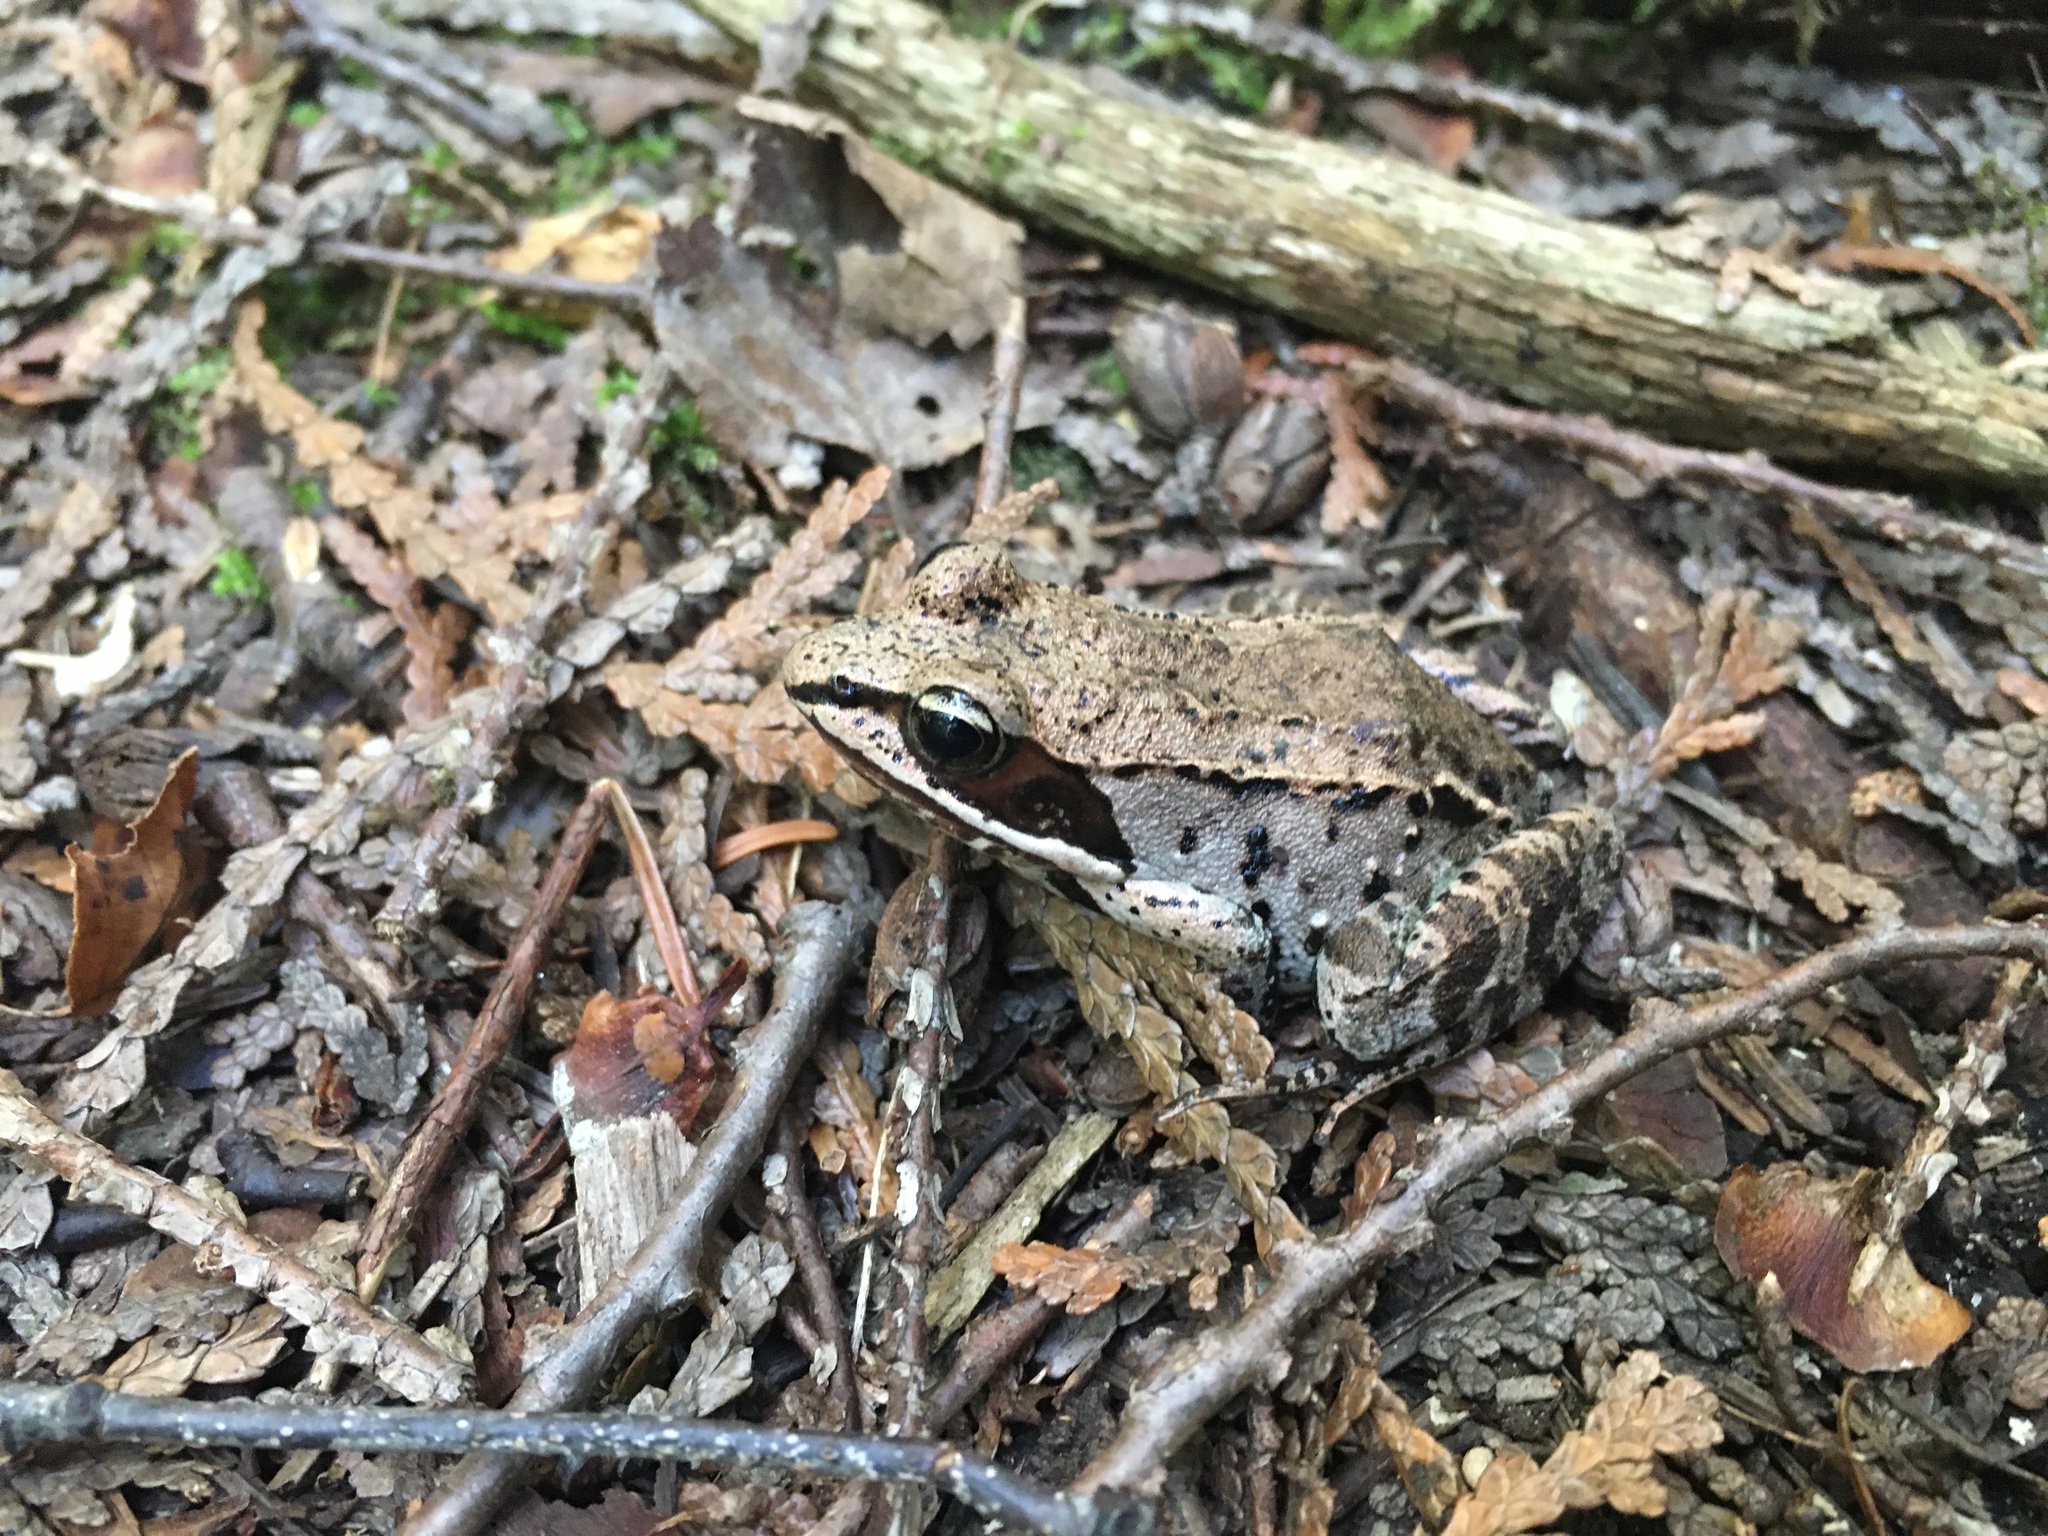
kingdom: Animalia
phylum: Chordata
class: Amphibia
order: Anura
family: Ranidae
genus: Lithobates
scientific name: Lithobates sylvaticus
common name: Wood frog
